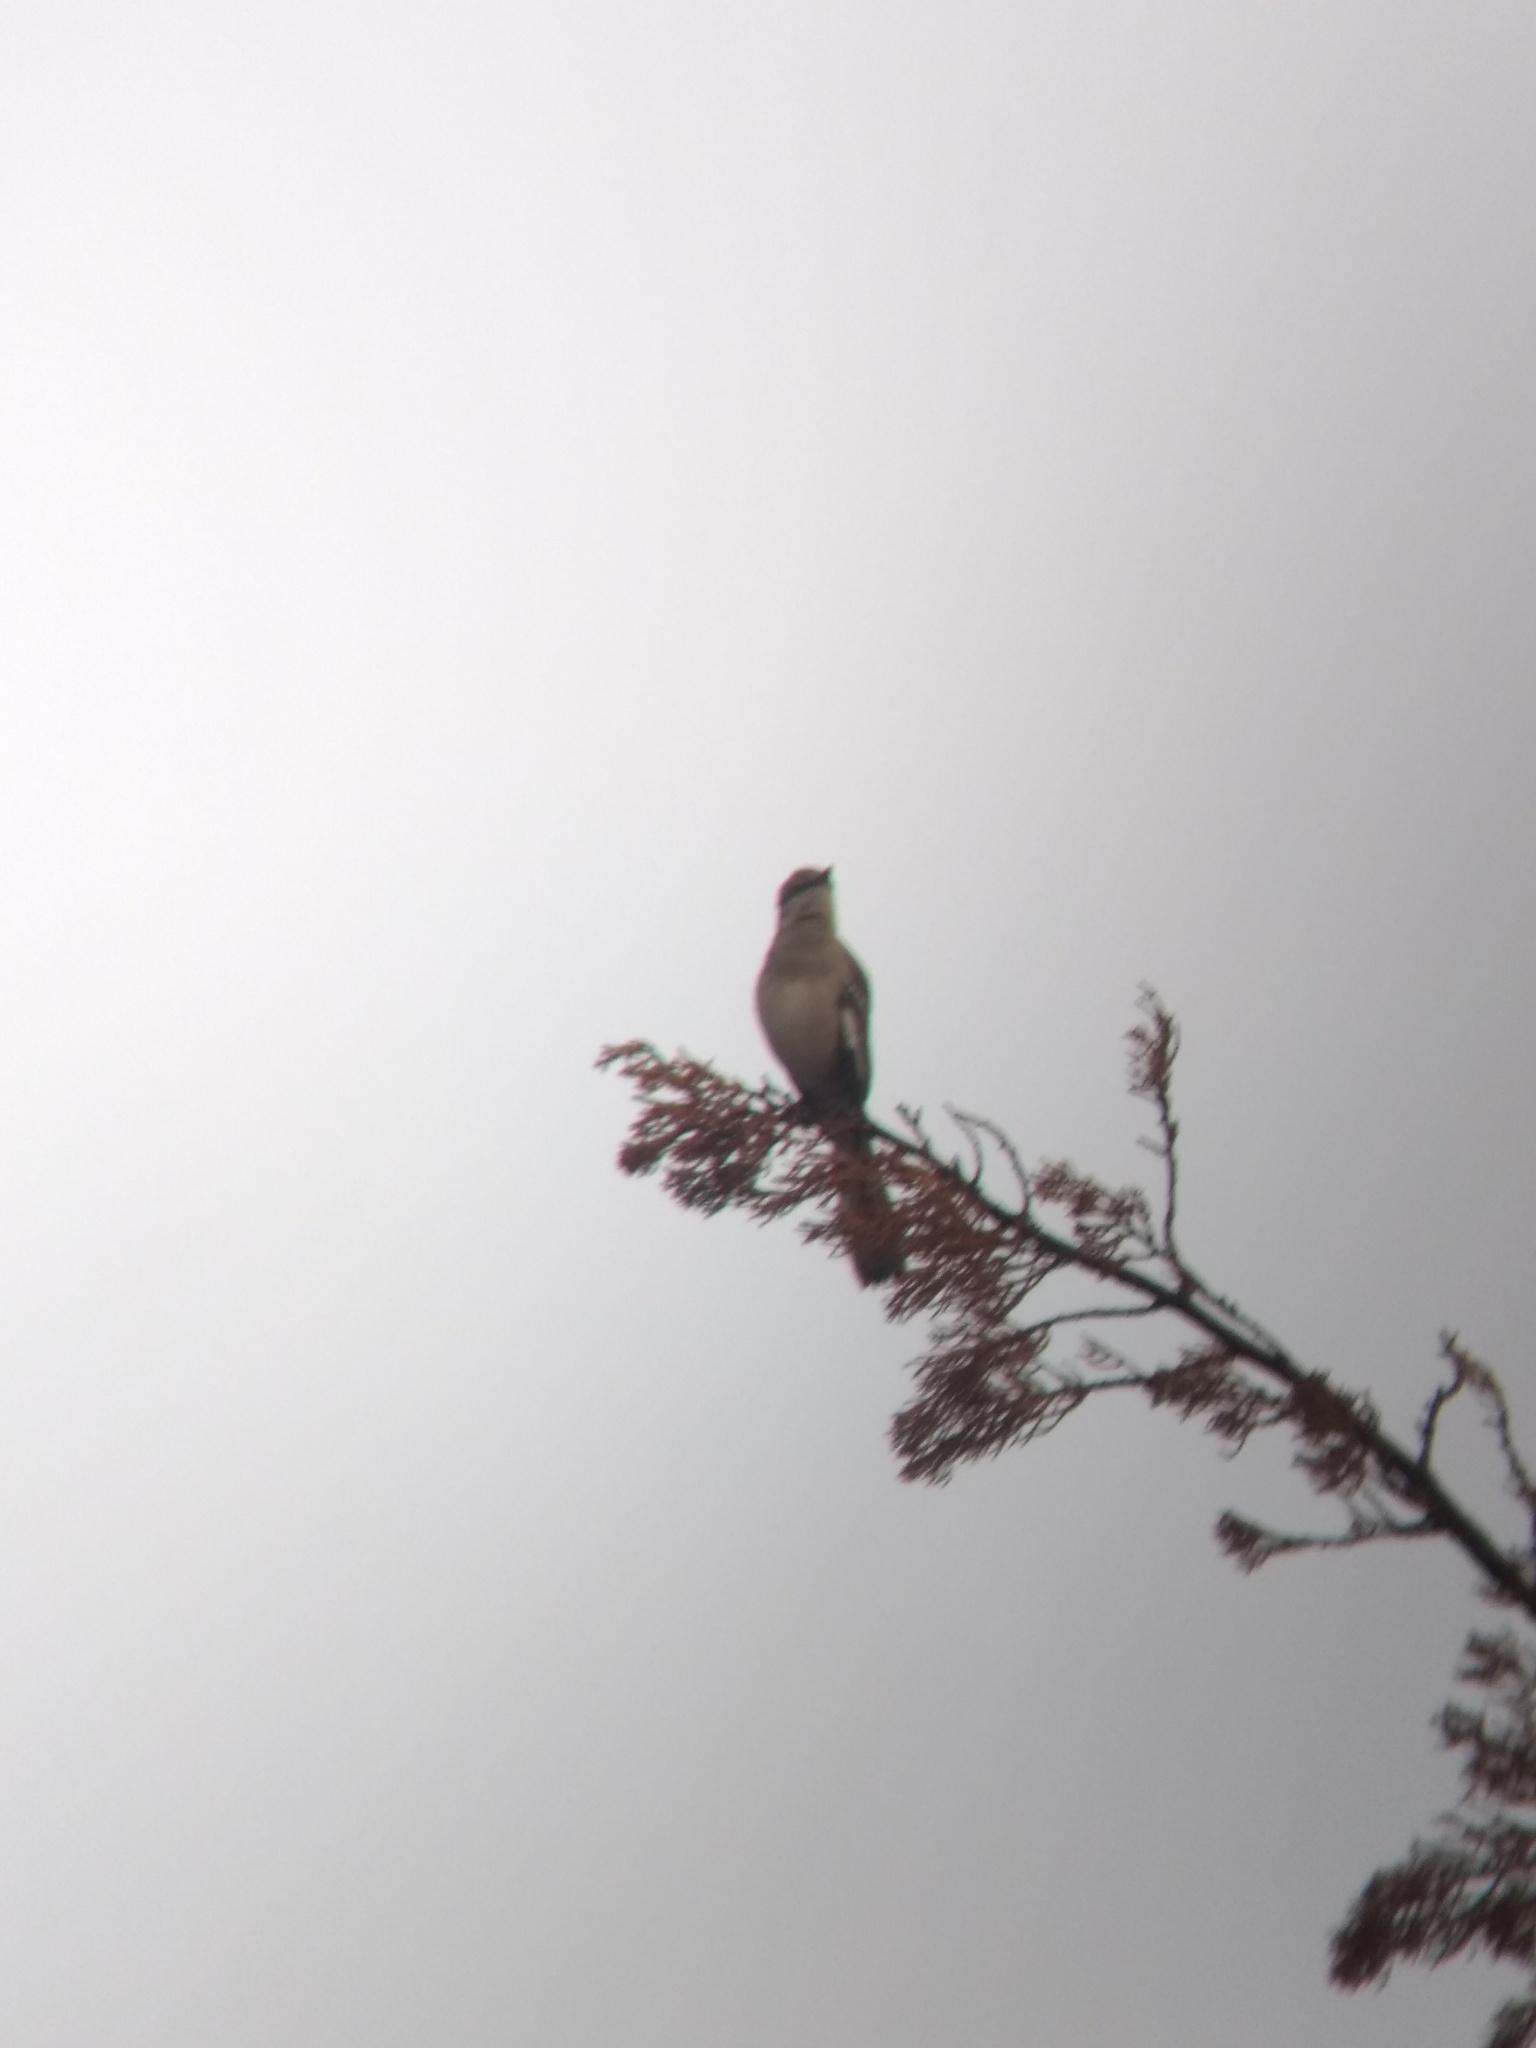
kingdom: Animalia
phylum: Chordata
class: Aves
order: Passeriformes
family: Mimidae
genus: Mimus
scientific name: Mimus polyglottos
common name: Northern mockingbird
